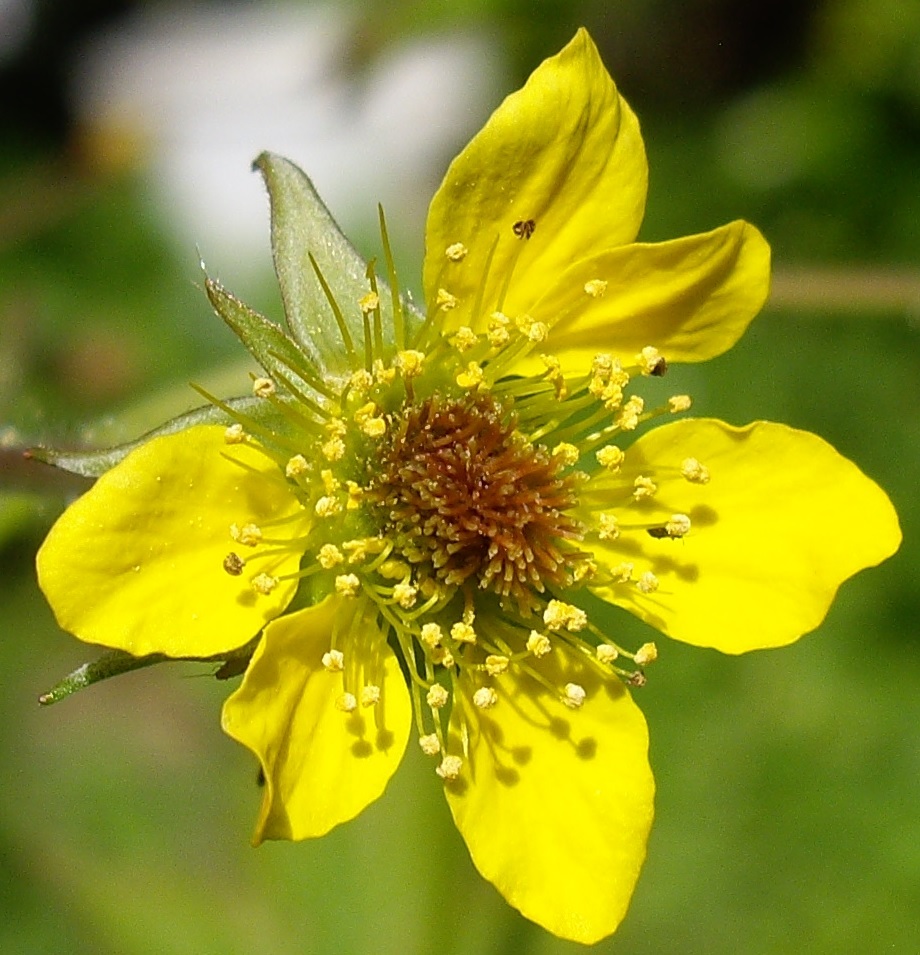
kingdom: Plantae
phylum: Tracheophyta
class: Magnoliopsida
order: Rosales
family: Rosaceae
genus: Geum
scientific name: Geum urbanum
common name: Wood avens
